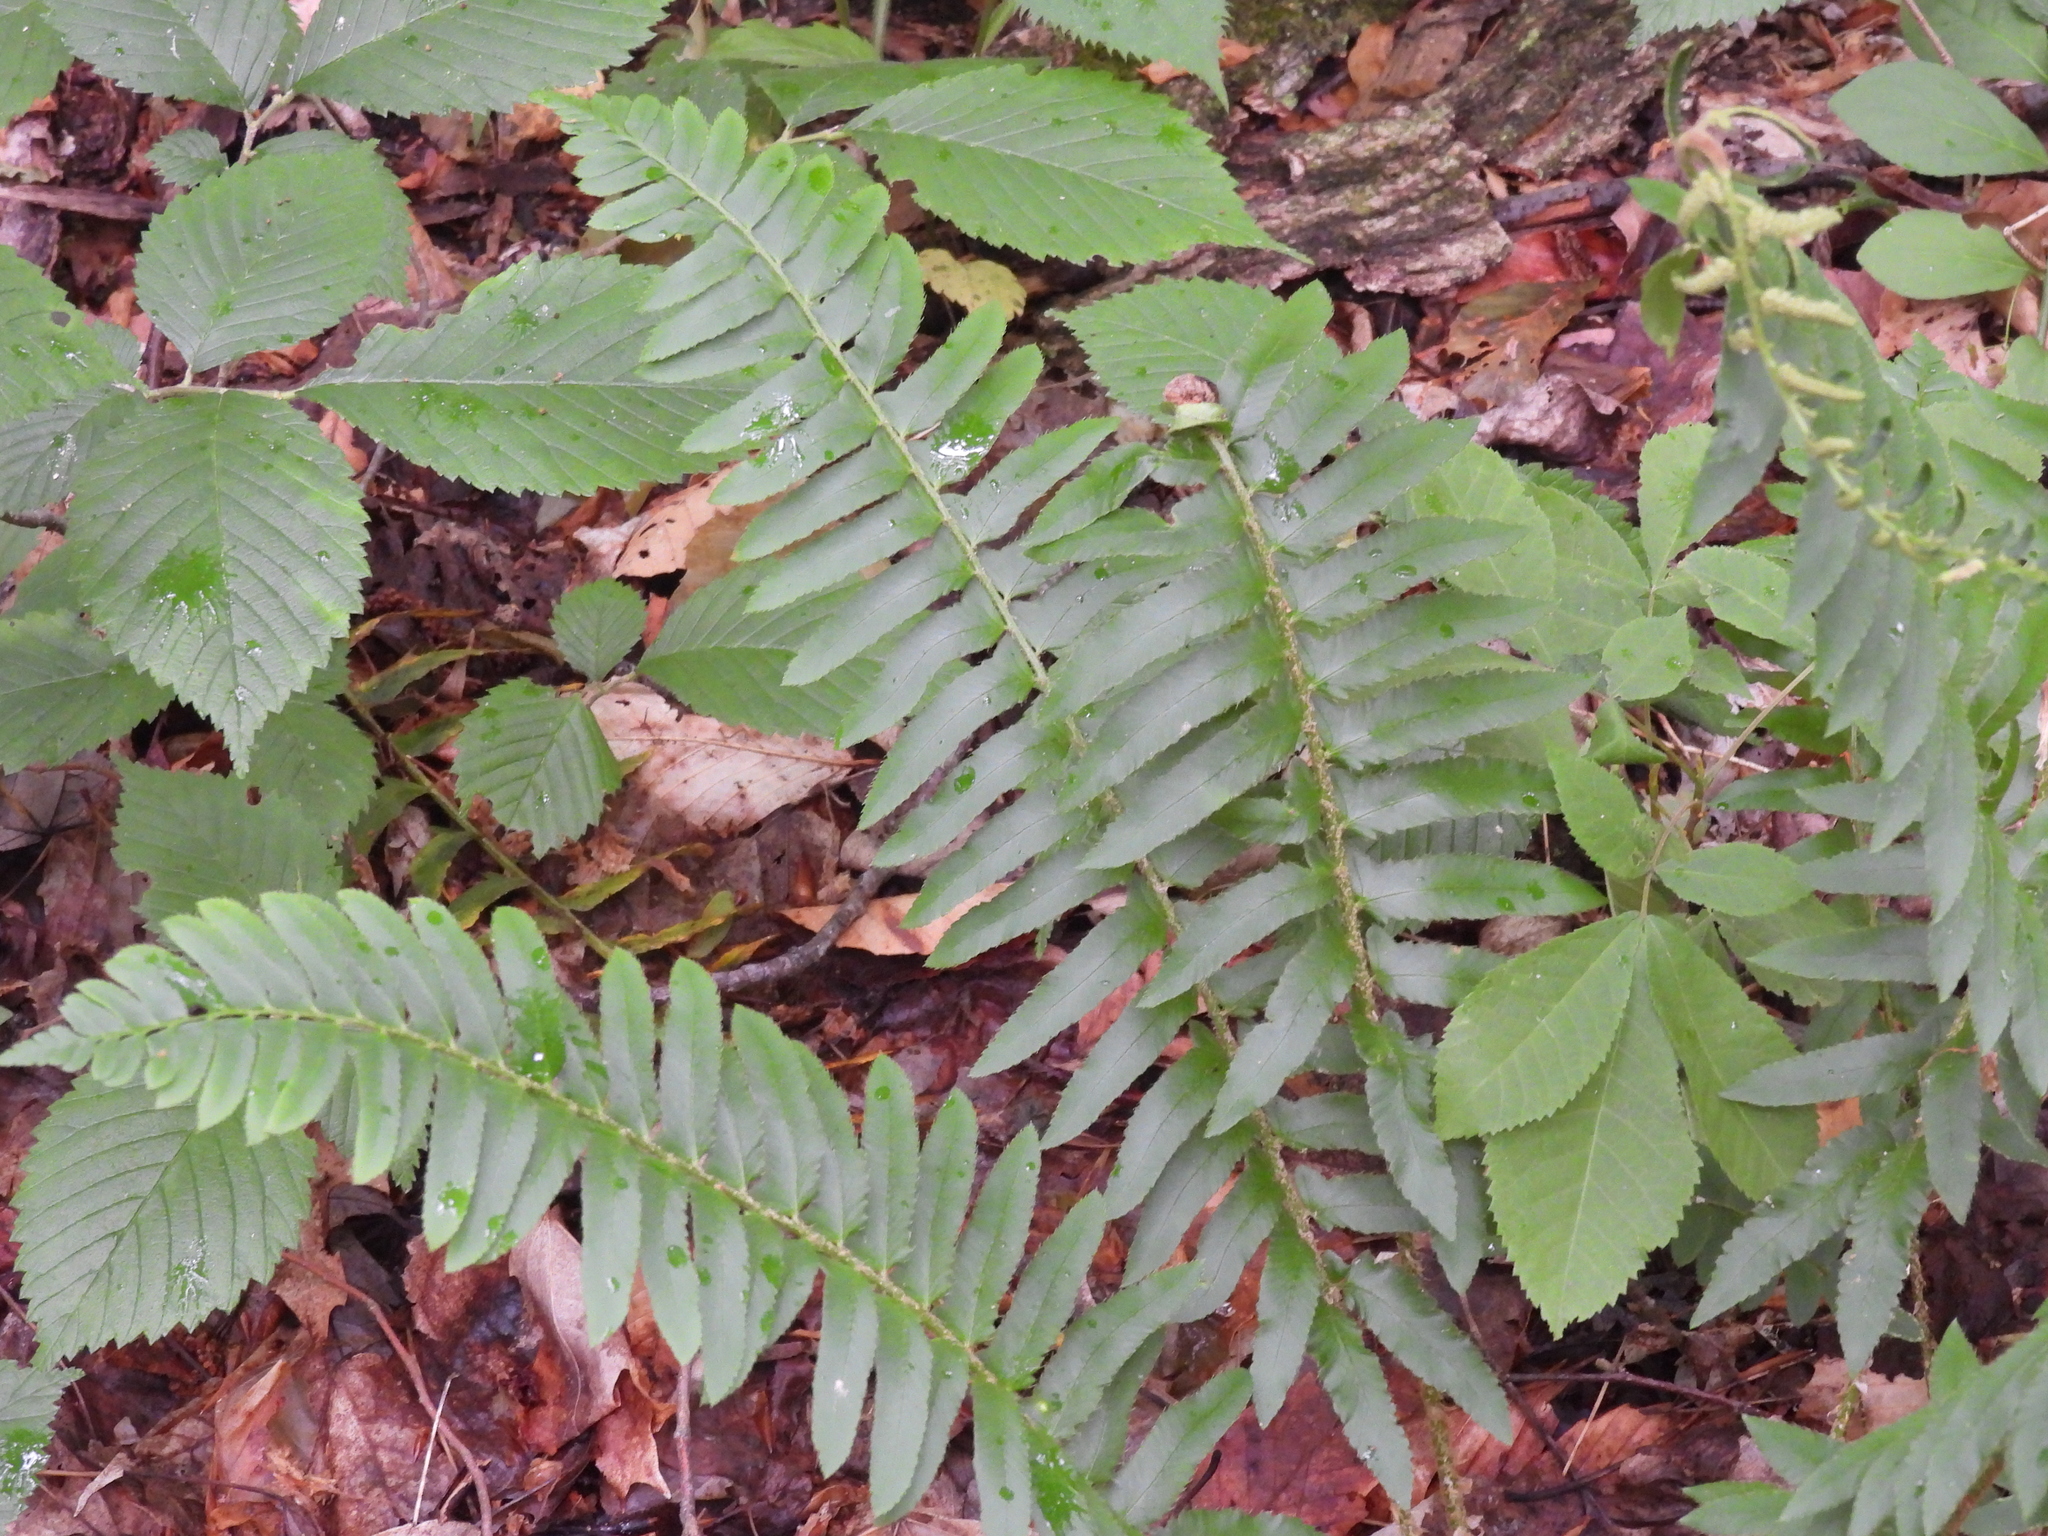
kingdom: Plantae
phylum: Tracheophyta
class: Polypodiopsida
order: Polypodiales
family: Dryopteridaceae
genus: Polystichum
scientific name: Polystichum acrostichoides
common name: Christmas fern
